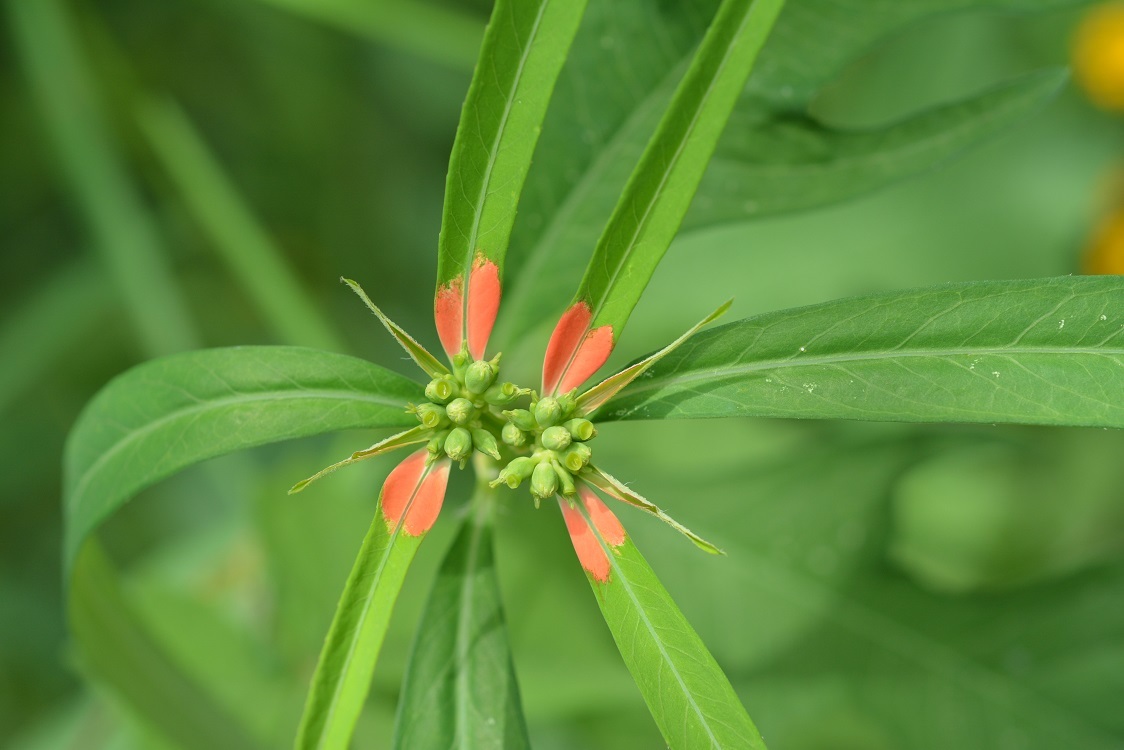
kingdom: Plantae
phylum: Tracheophyta
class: Magnoliopsida
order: Malpighiales
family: Euphorbiaceae
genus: Euphorbia
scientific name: Euphorbia heterophylla
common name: Mexican fireplant
